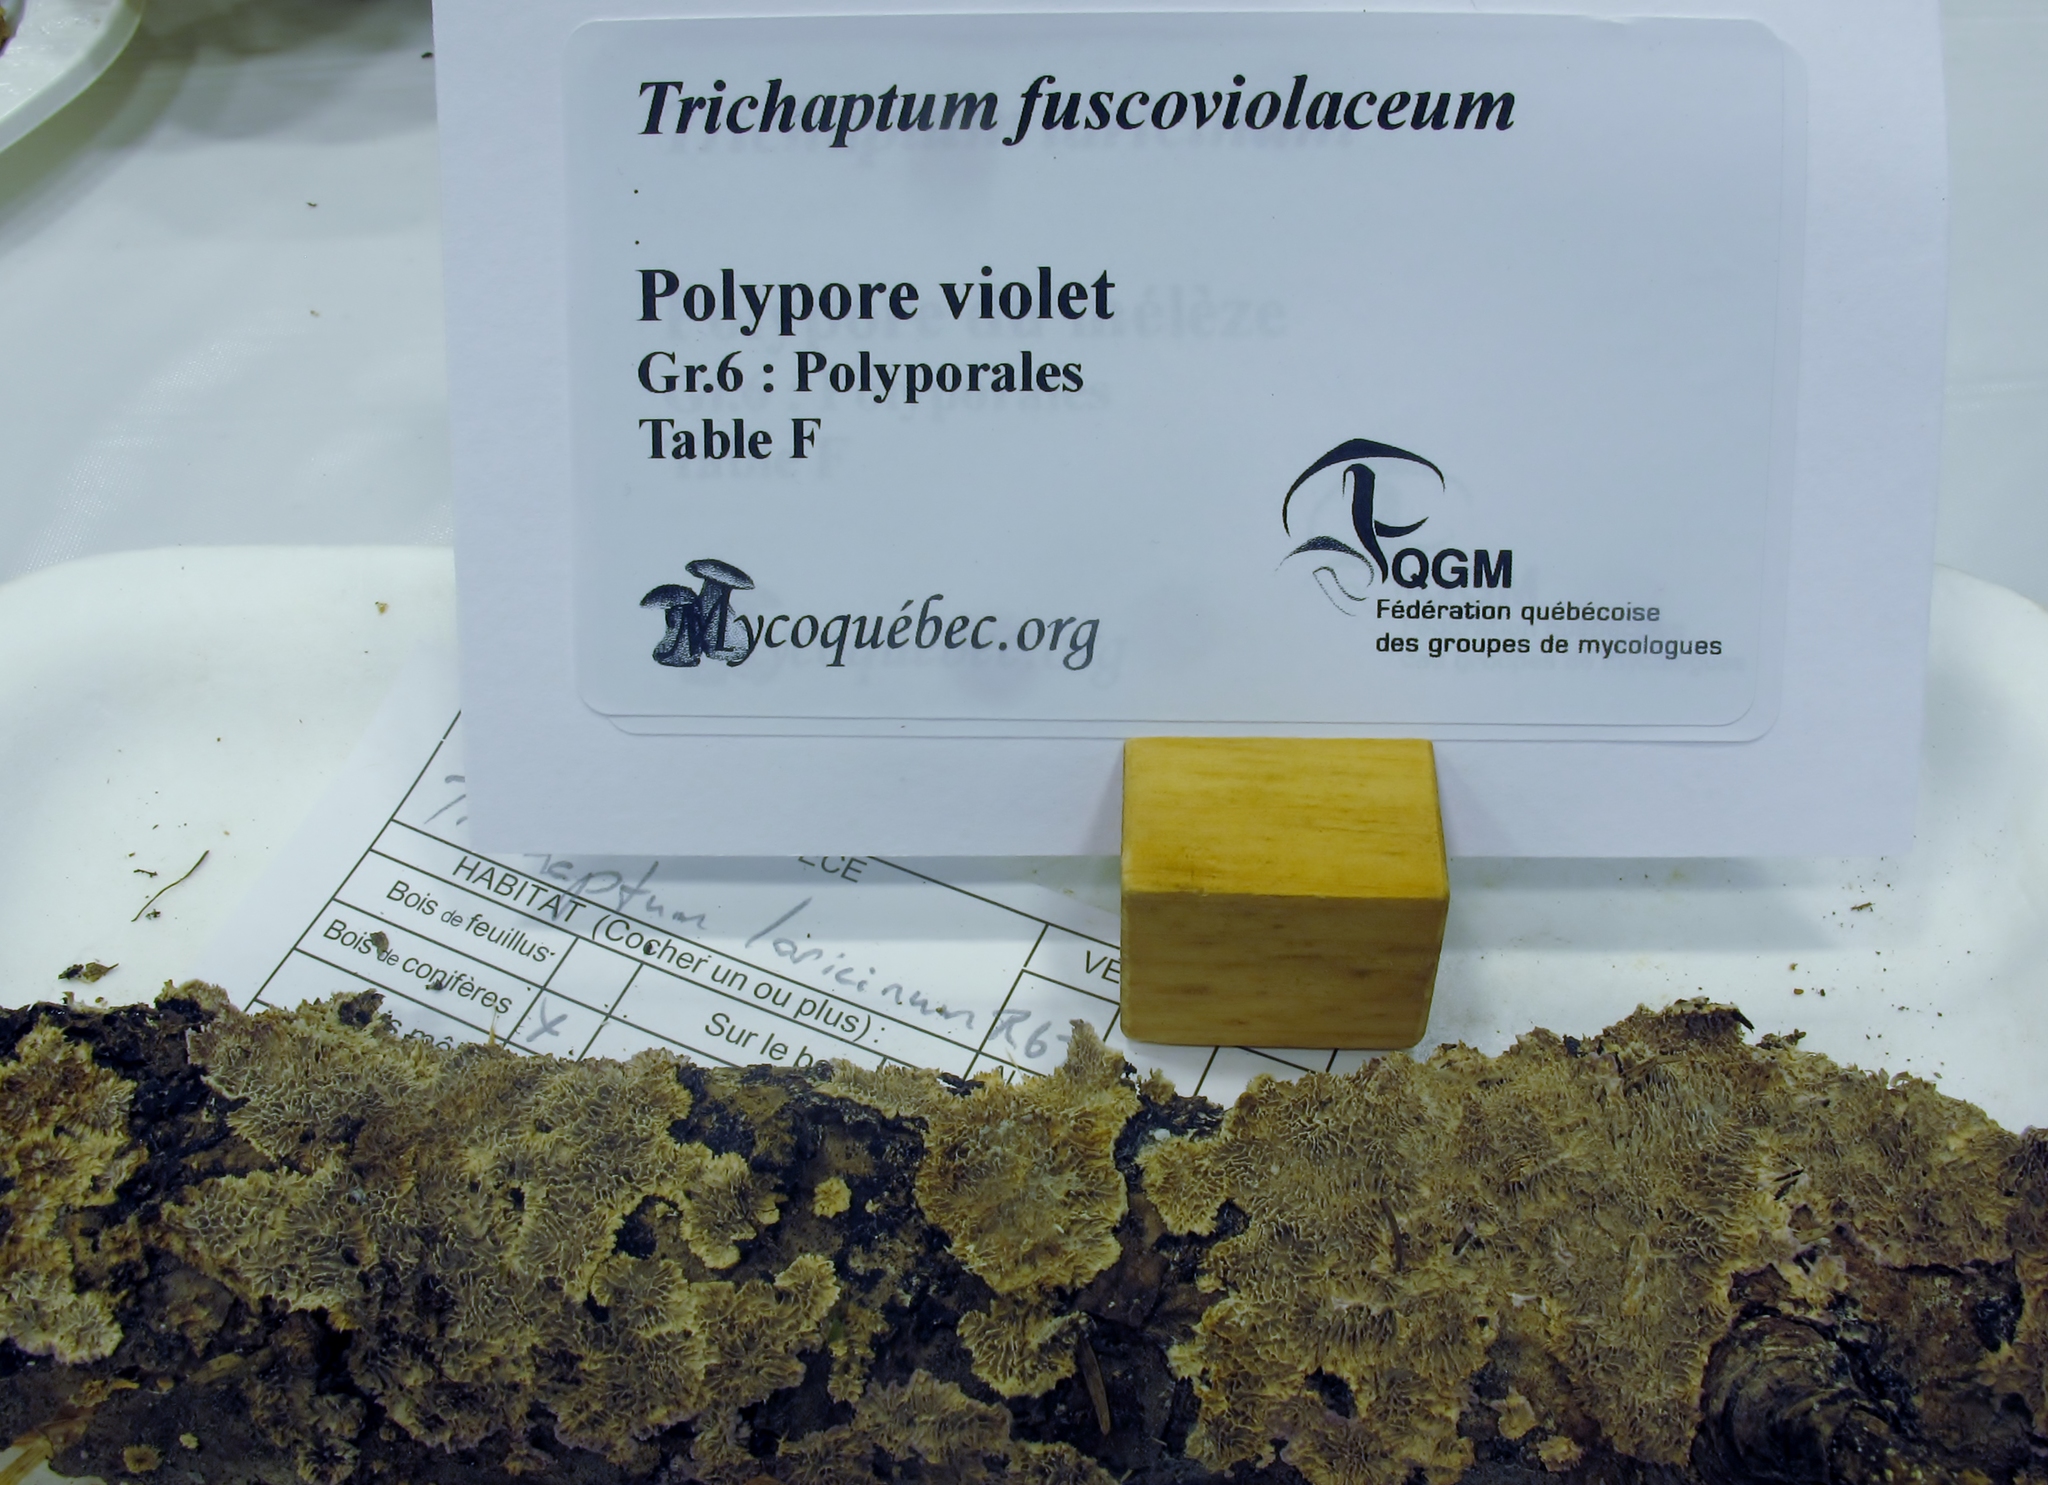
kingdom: Fungi
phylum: Basidiomycota
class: Agaricomycetes
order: Hymenochaetales
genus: Trichaptum
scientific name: Trichaptum fuscoviolaceum
